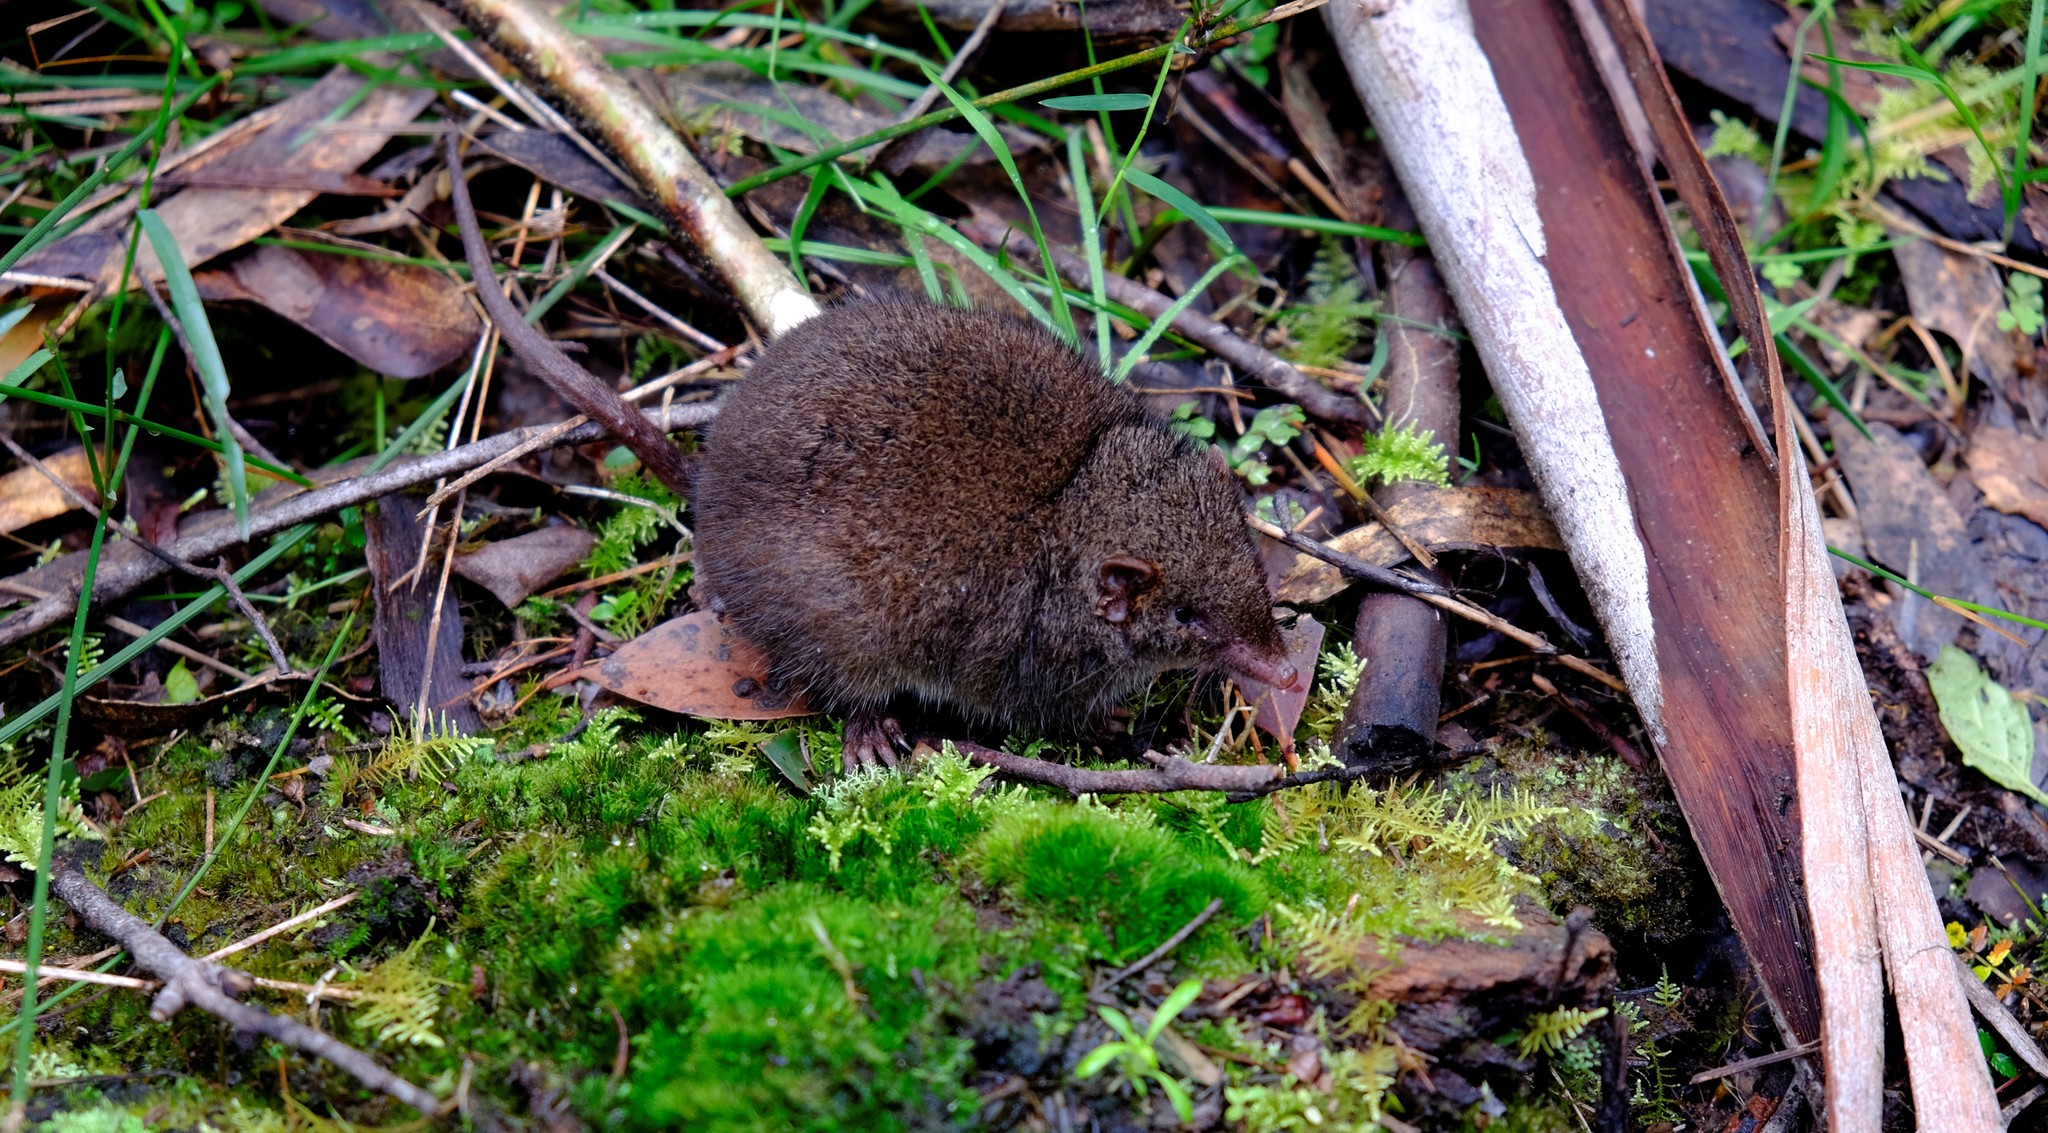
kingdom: Animalia
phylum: Chordata
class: Mammalia
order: Dasyuromorphia
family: Dasyuridae
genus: Antechinus
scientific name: Antechinus
